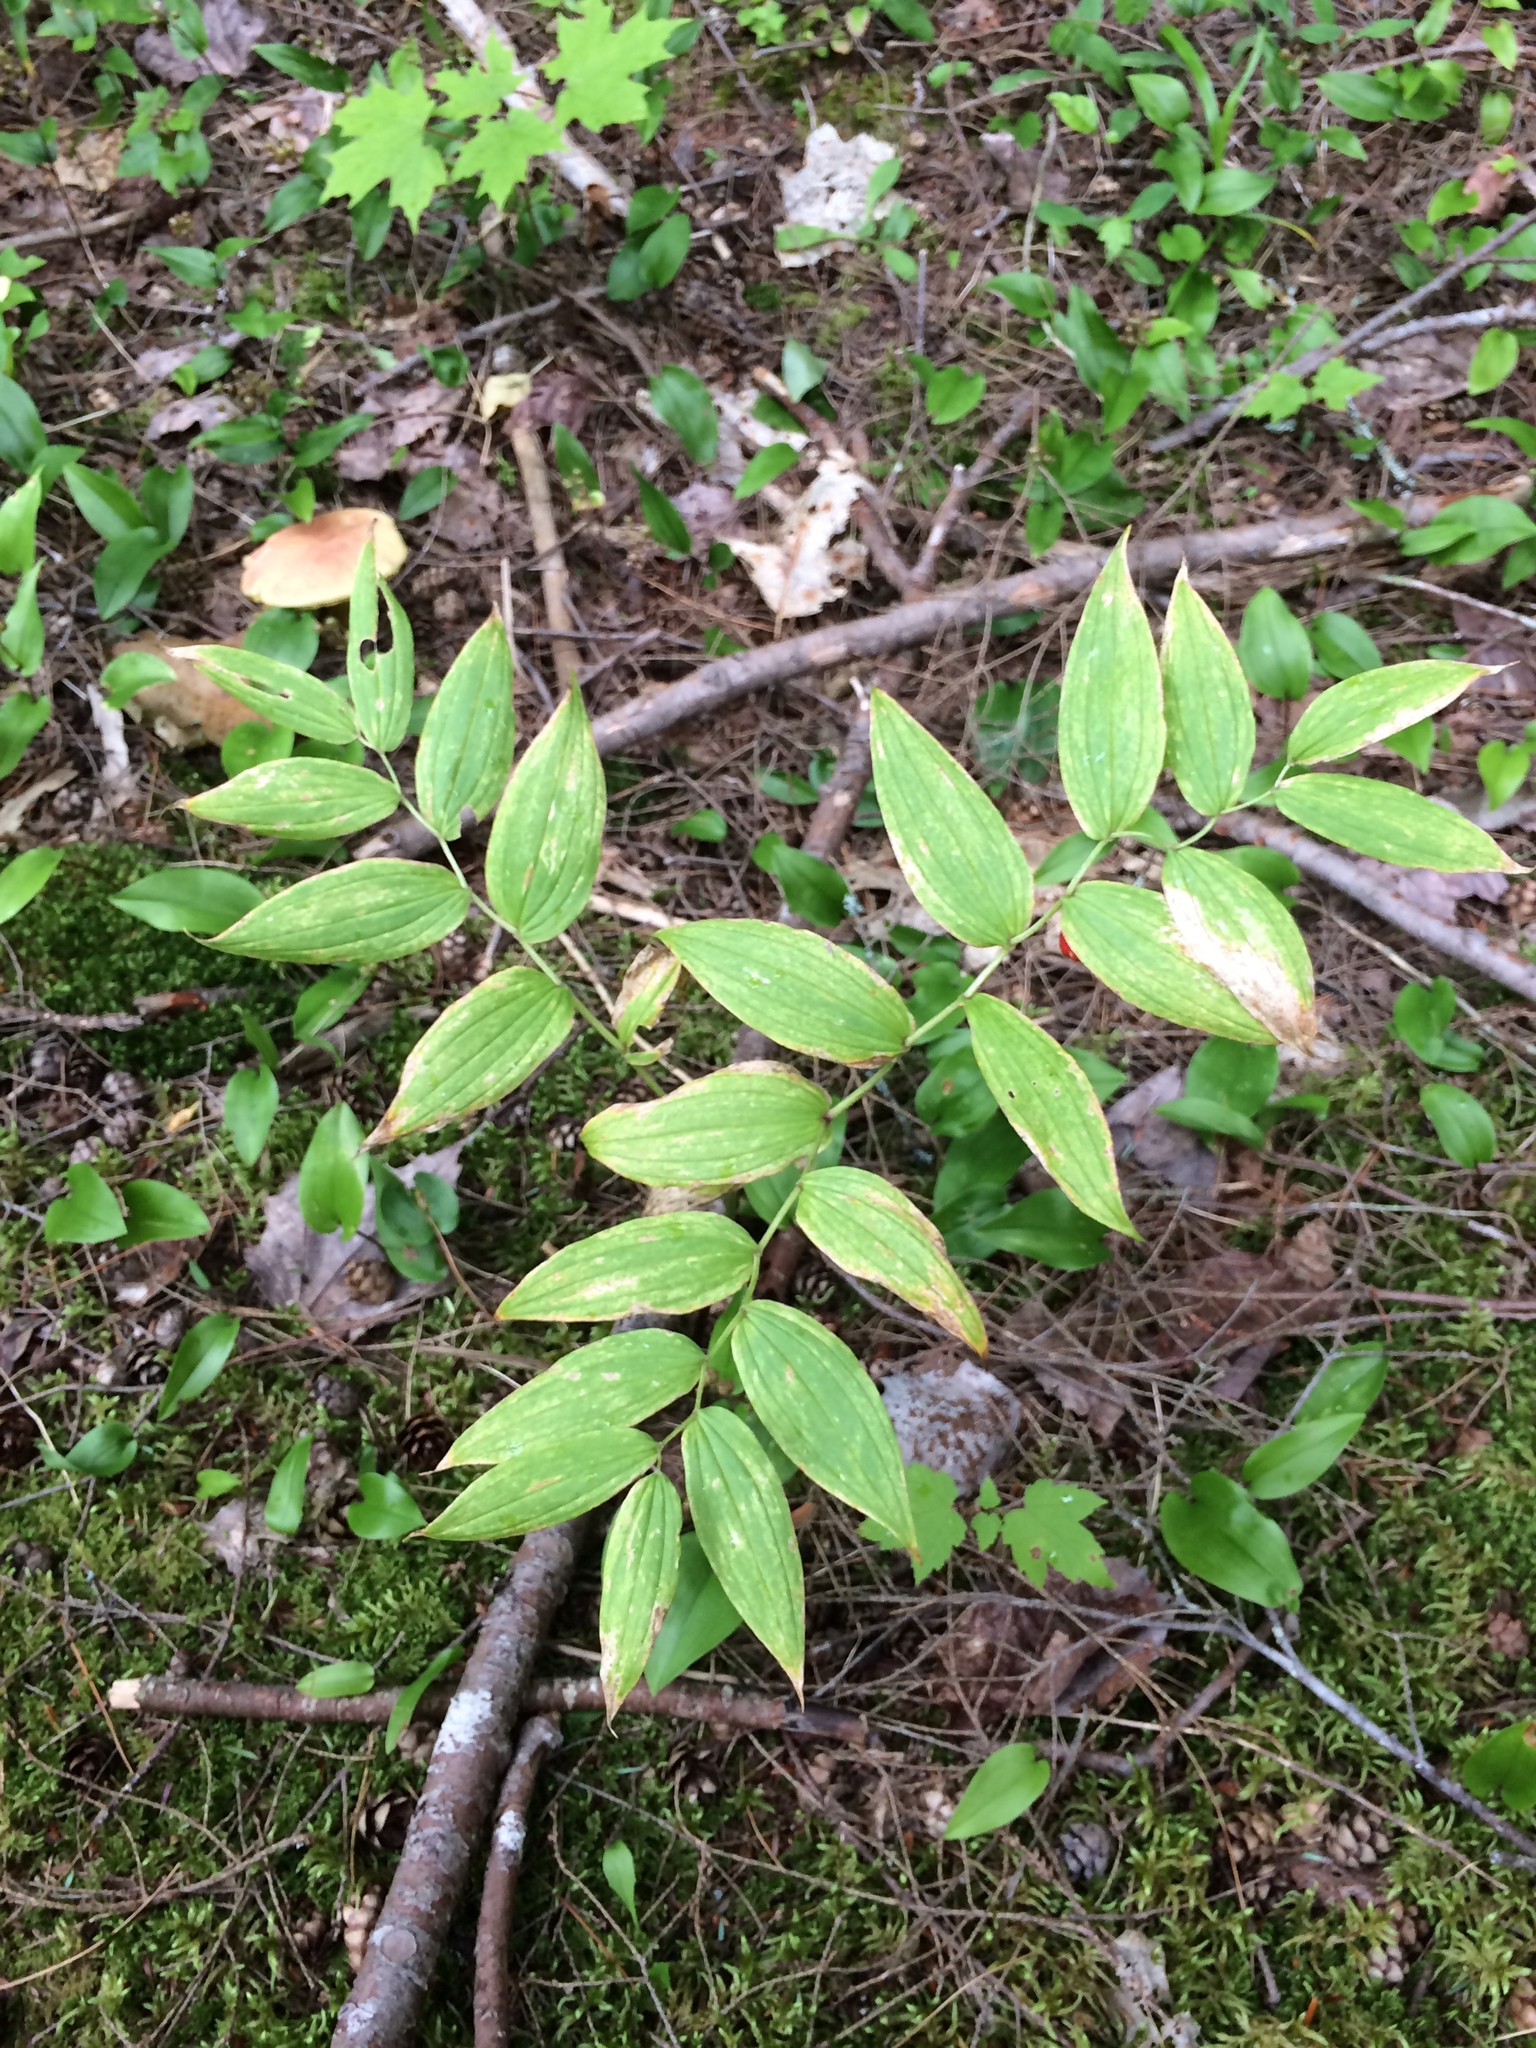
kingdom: Plantae
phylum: Tracheophyta
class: Liliopsida
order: Liliales
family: Liliaceae
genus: Streptopus
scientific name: Streptopus lanceolatus
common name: Rose mandarin
